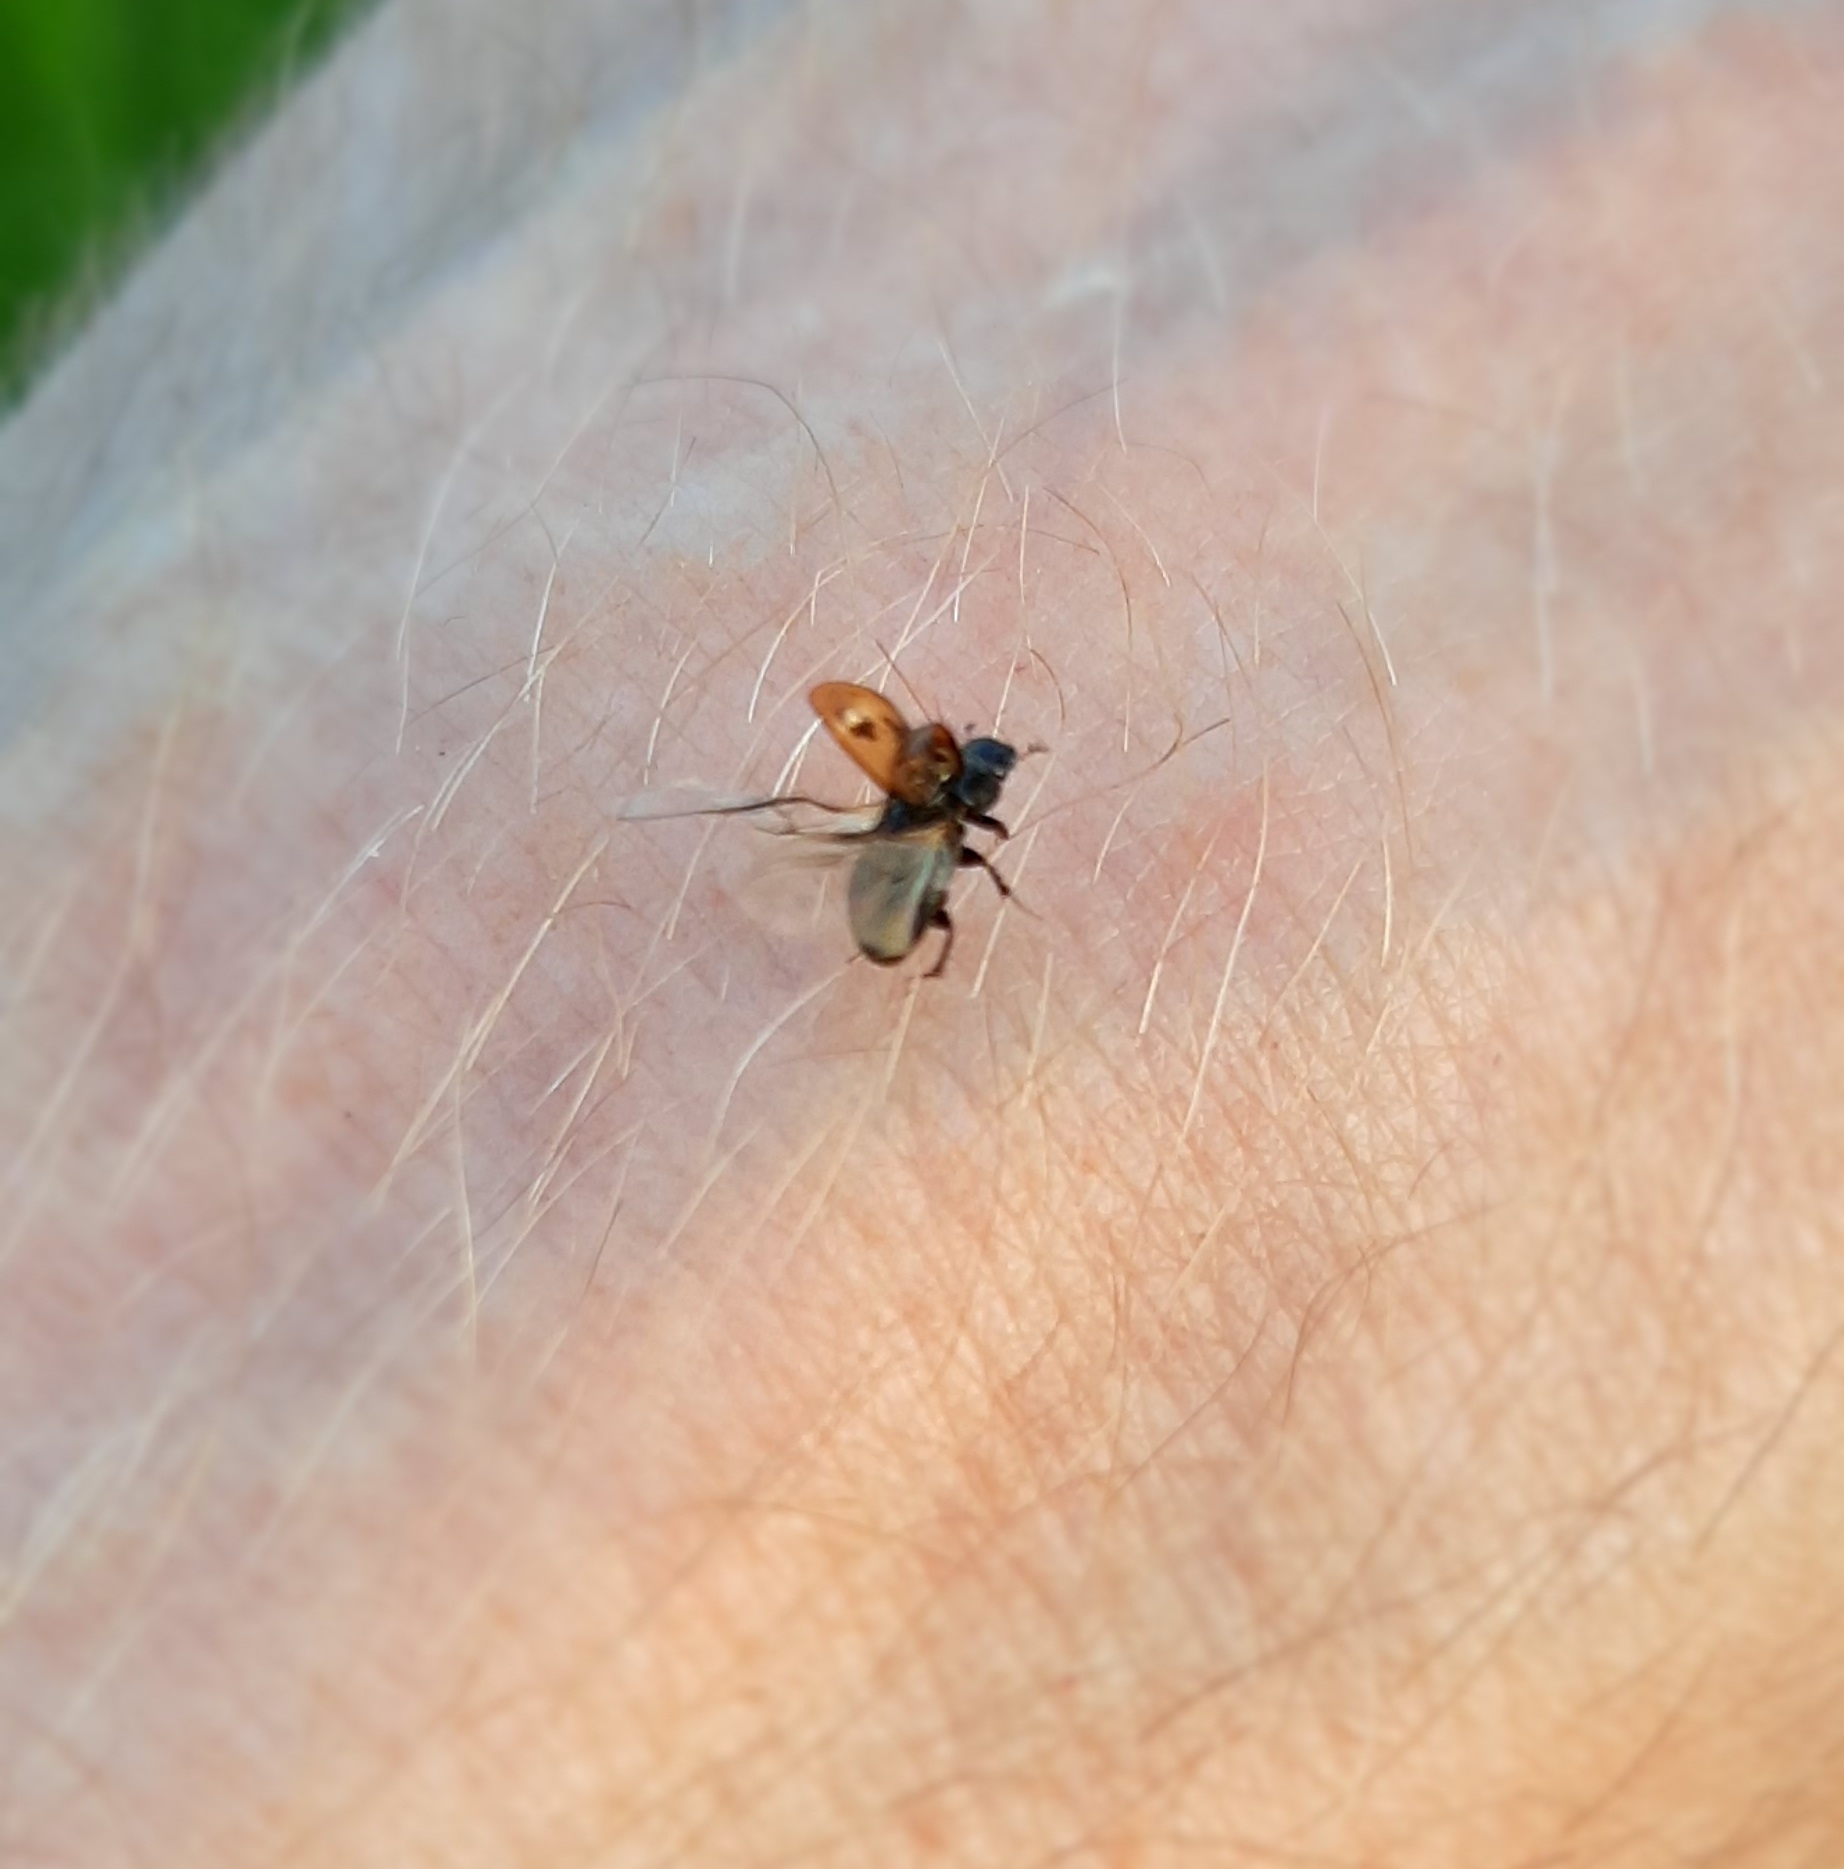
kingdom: Animalia
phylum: Arthropoda
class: Insecta
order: Coleoptera
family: Scarabaeidae
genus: Chilothorax
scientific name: Chilothorax distinctus
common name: Maculated dung beetle
